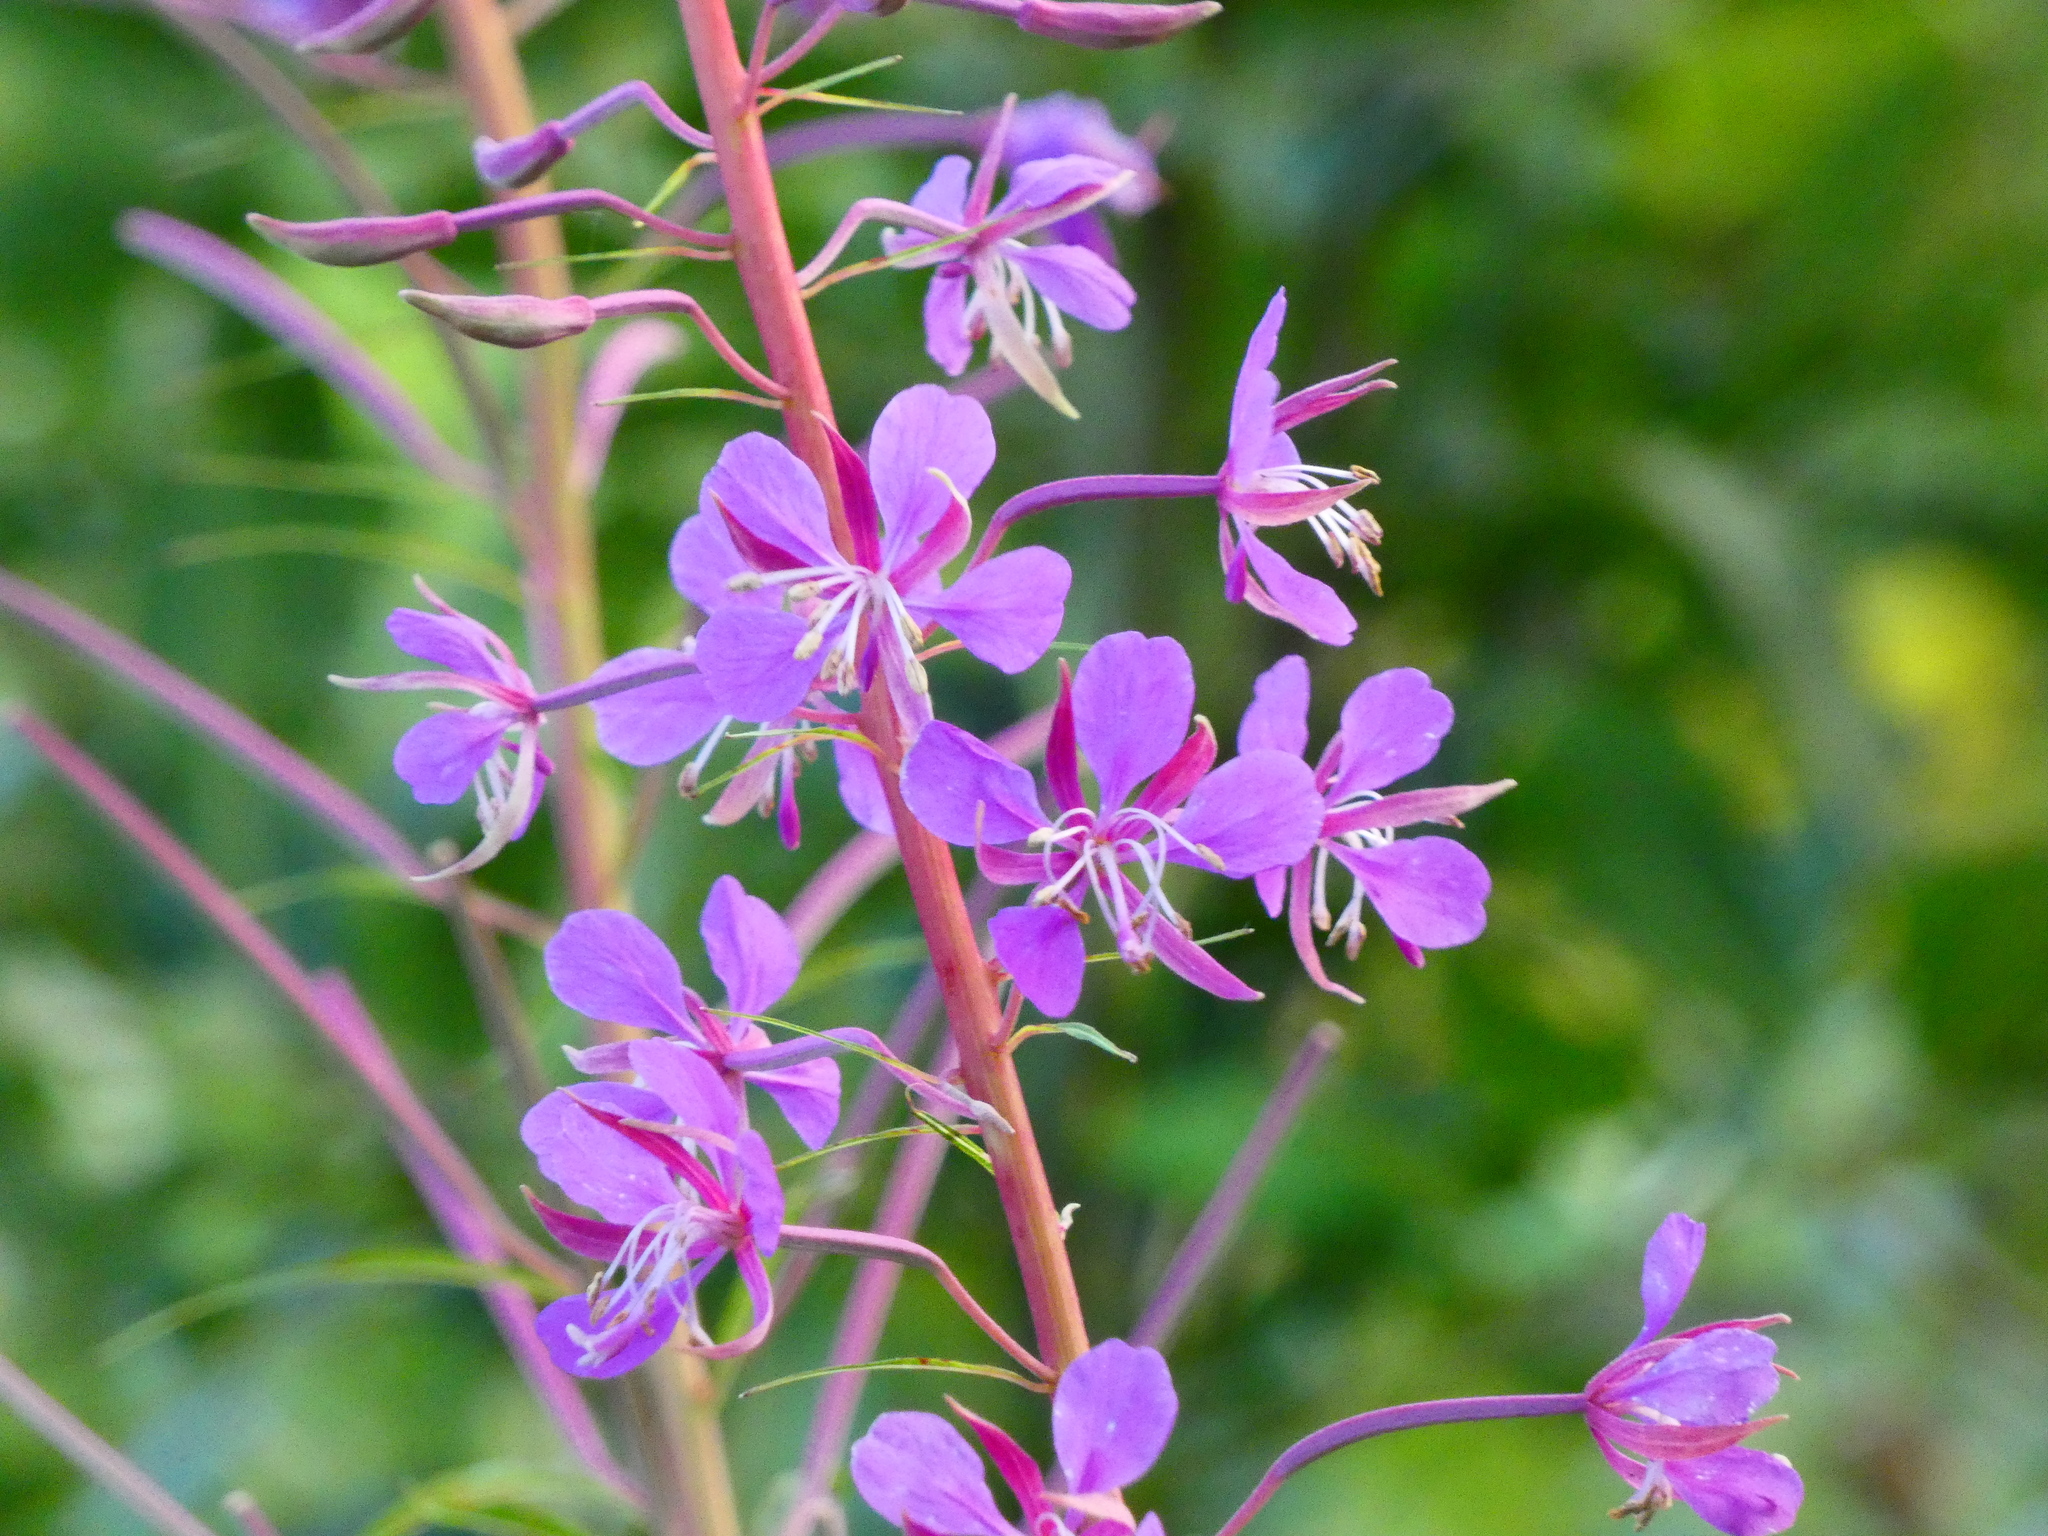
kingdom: Plantae
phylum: Tracheophyta
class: Magnoliopsida
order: Myrtales
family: Onagraceae
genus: Chamaenerion
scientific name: Chamaenerion angustifolium
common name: Fireweed
